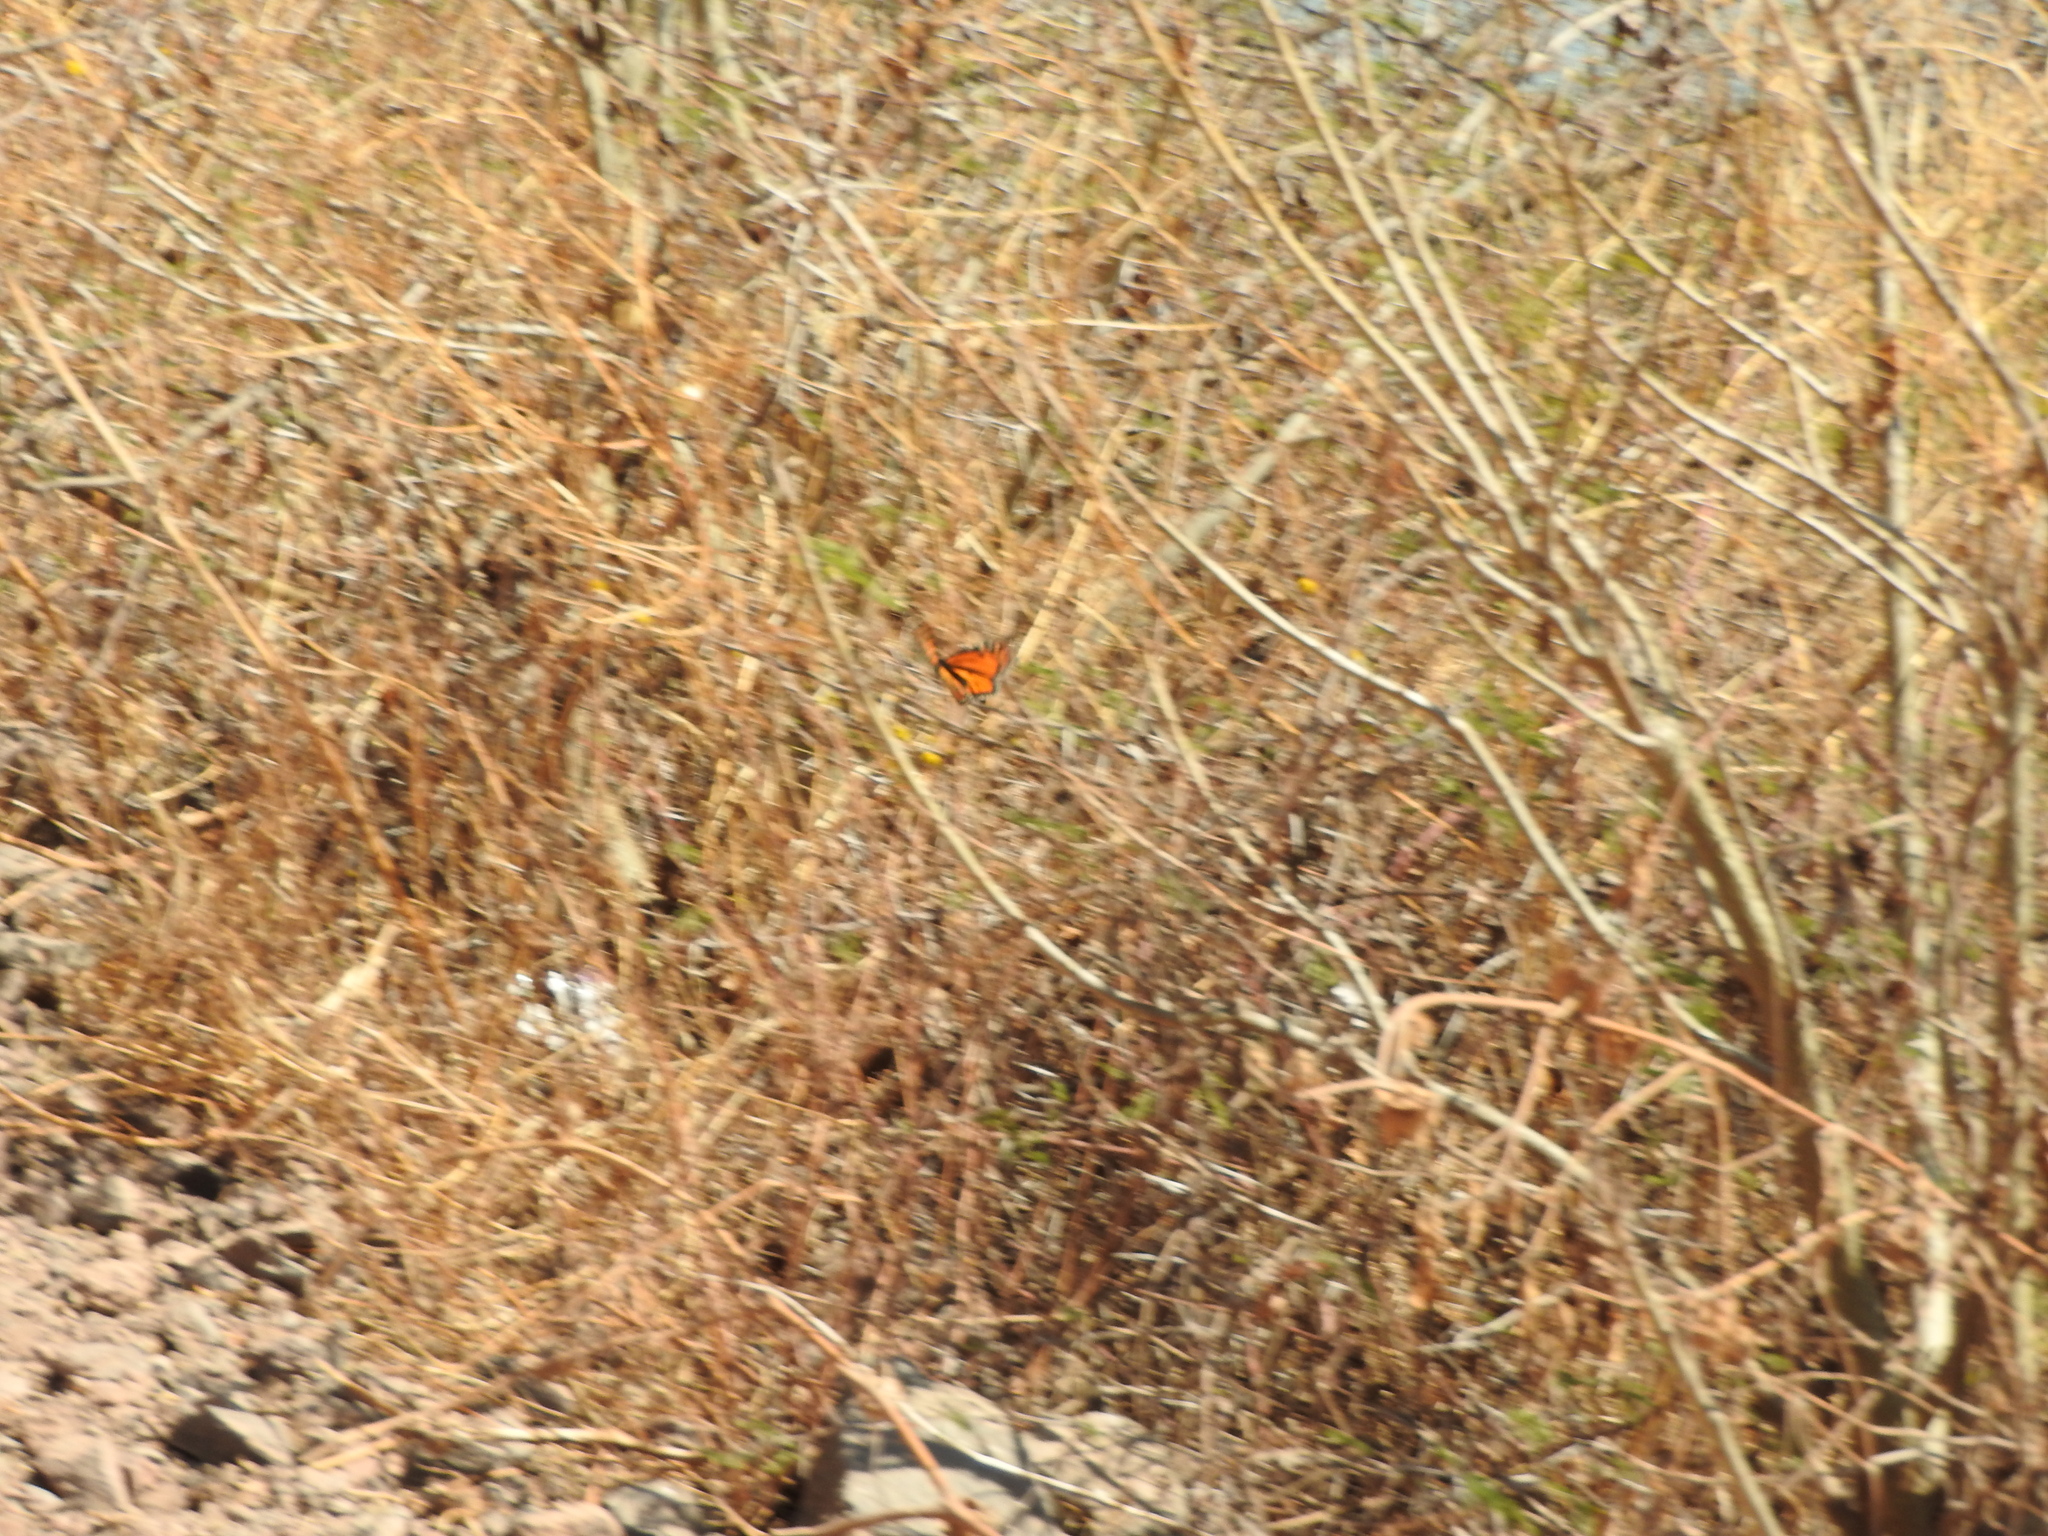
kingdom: Animalia
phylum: Arthropoda
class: Insecta
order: Lepidoptera
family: Nymphalidae
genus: Danaus
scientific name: Danaus plexippus
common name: Monarch
